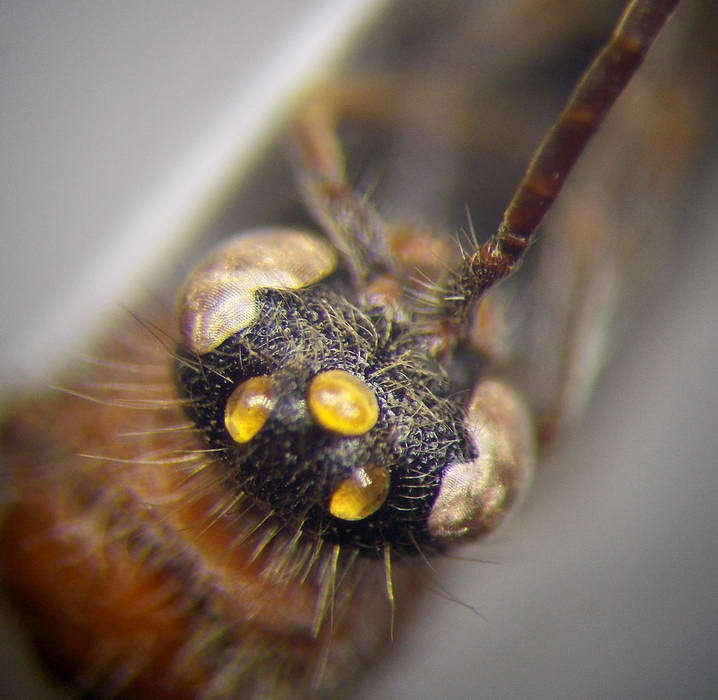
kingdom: Animalia
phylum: Arthropoda
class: Insecta
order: Hymenoptera
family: Mutillidae
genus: Smicromyrme
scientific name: Smicromyrme rufipes
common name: Small velvet ant
